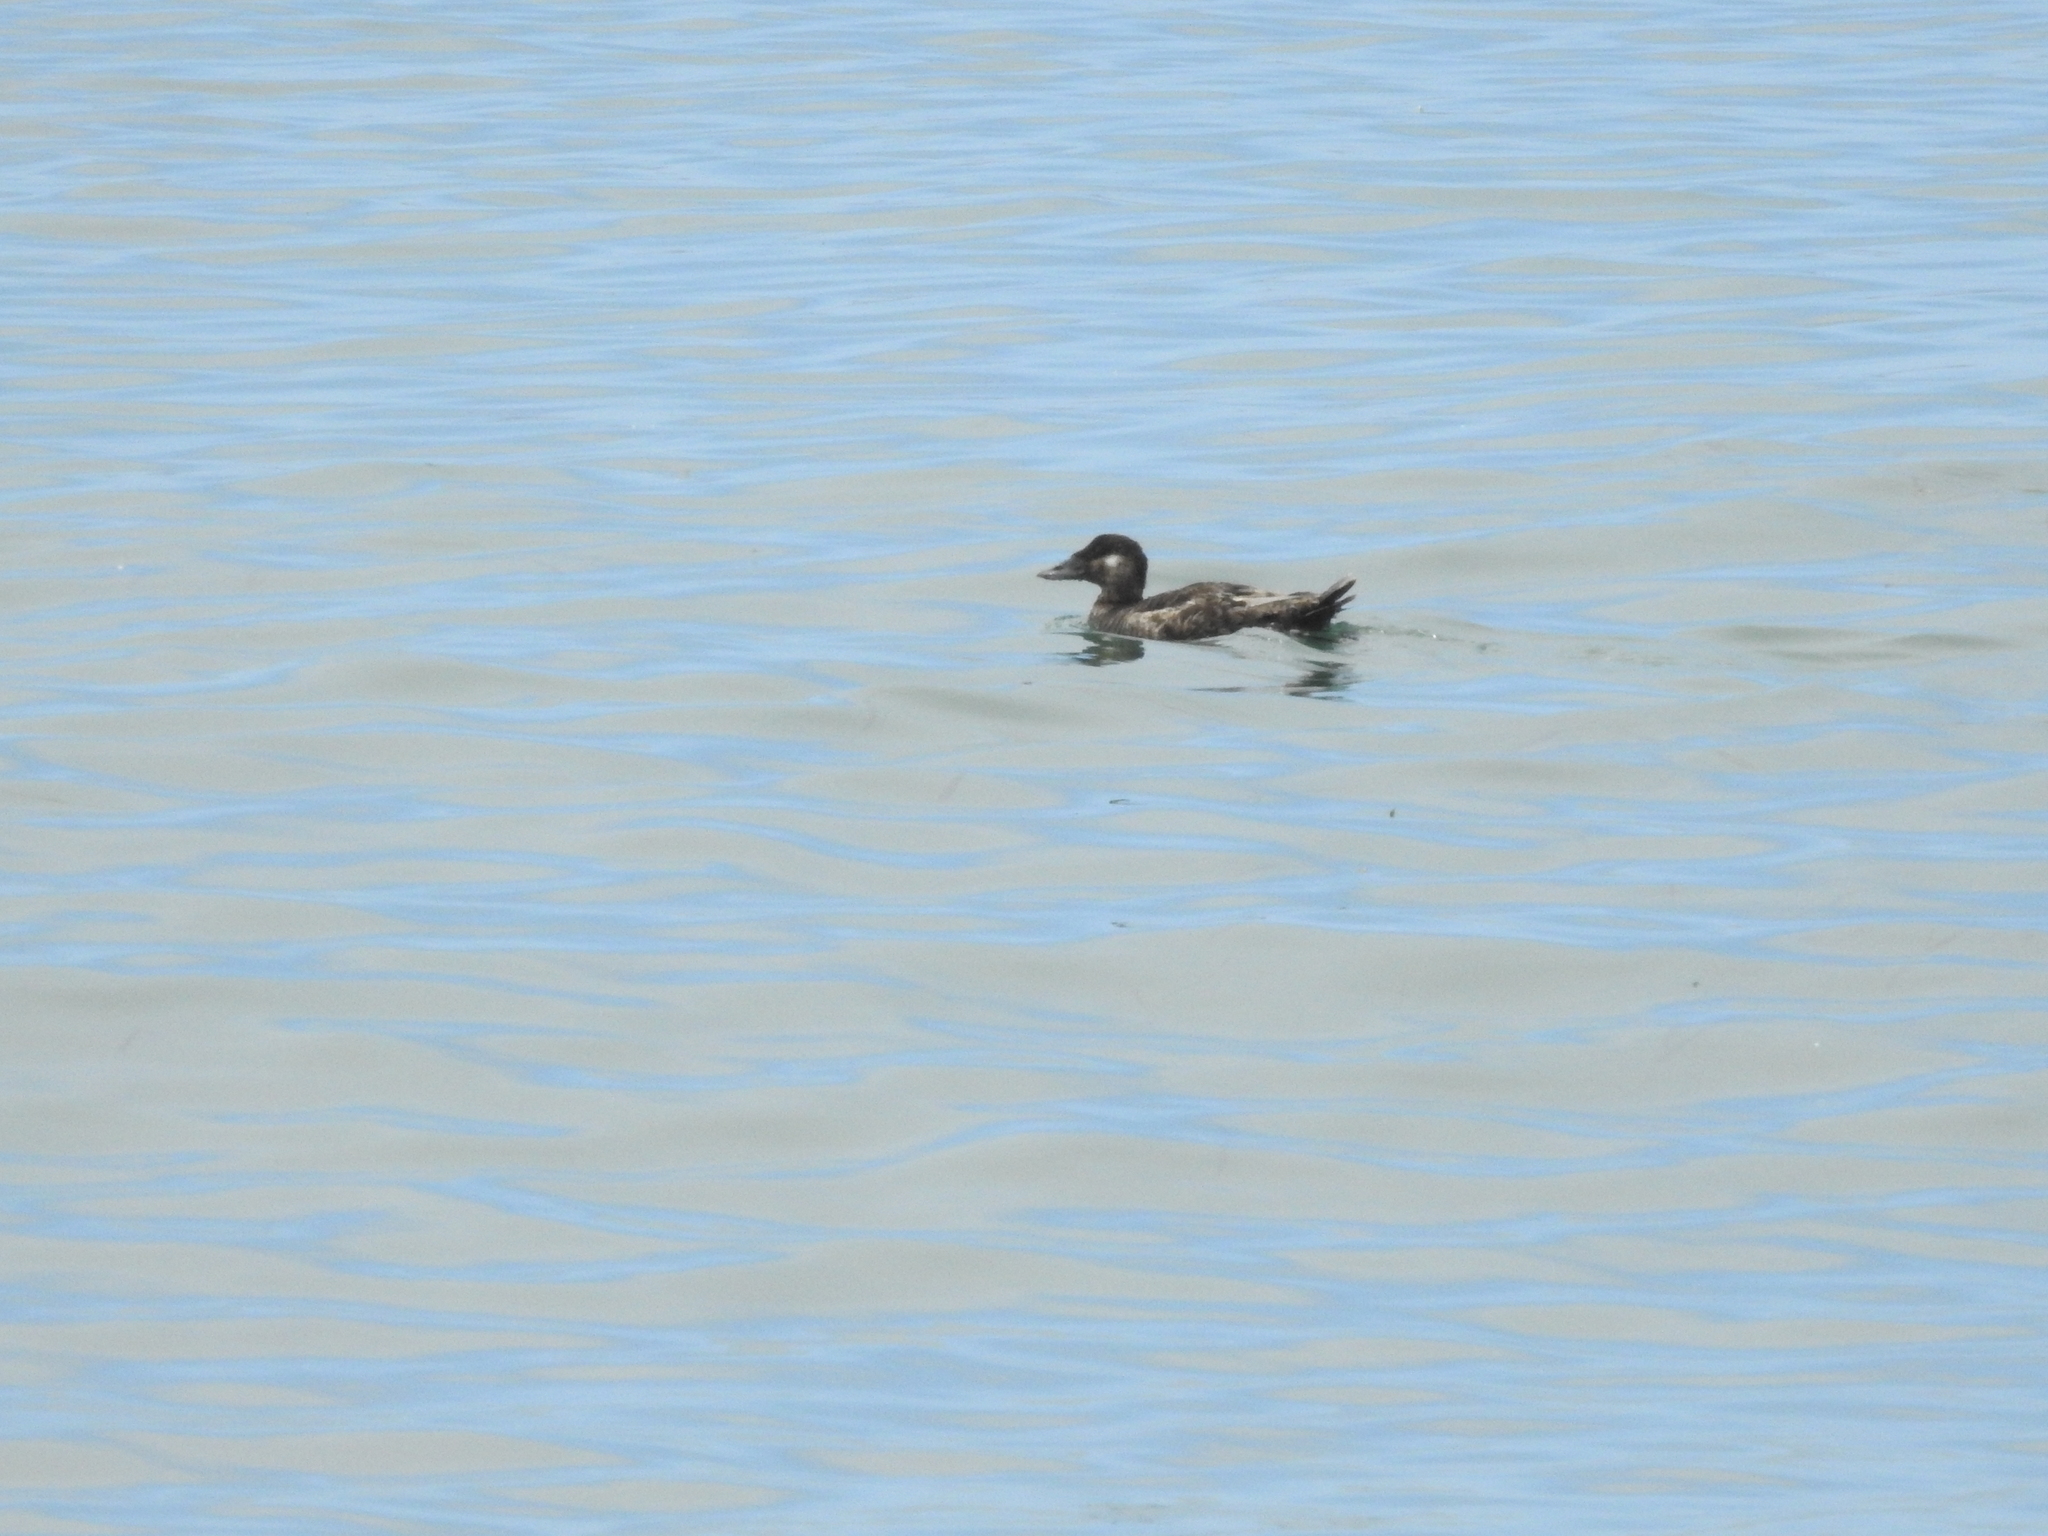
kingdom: Animalia
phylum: Chordata
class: Aves
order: Anseriformes
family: Anatidae
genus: Melanitta
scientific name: Melanitta perspicillata
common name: Surf scoter
